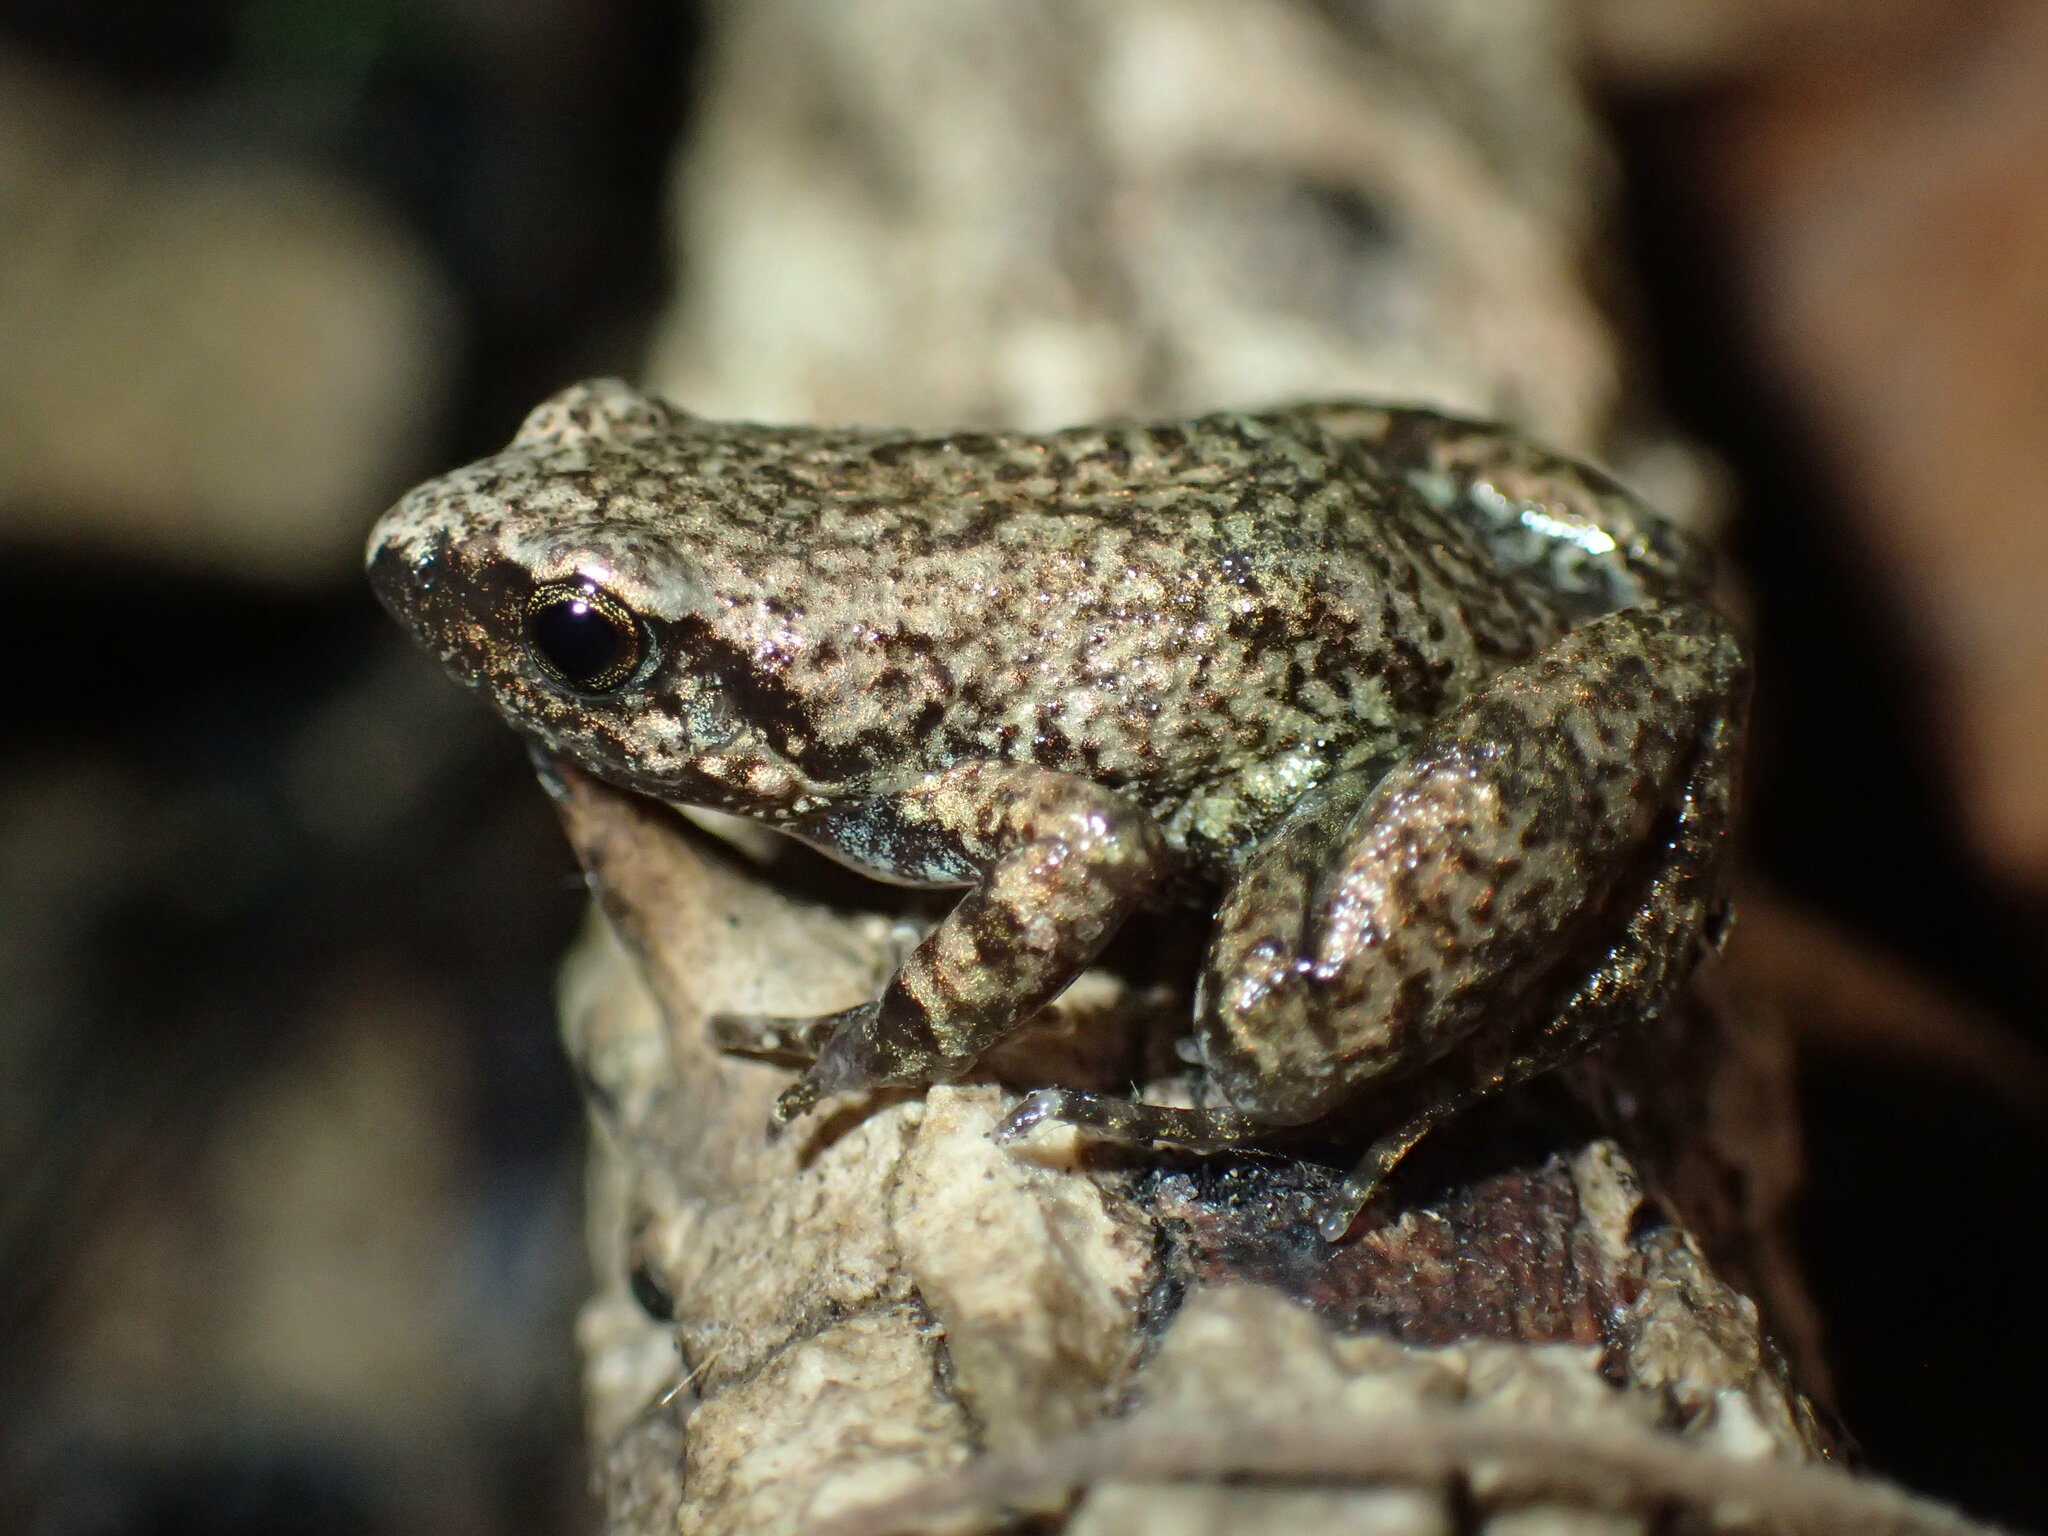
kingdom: Animalia
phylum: Chordata
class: Amphibia
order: Anura
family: Arthroleptidae
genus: Arthroleptis
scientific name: Arthroleptis xenochirus
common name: Plain squeaker
